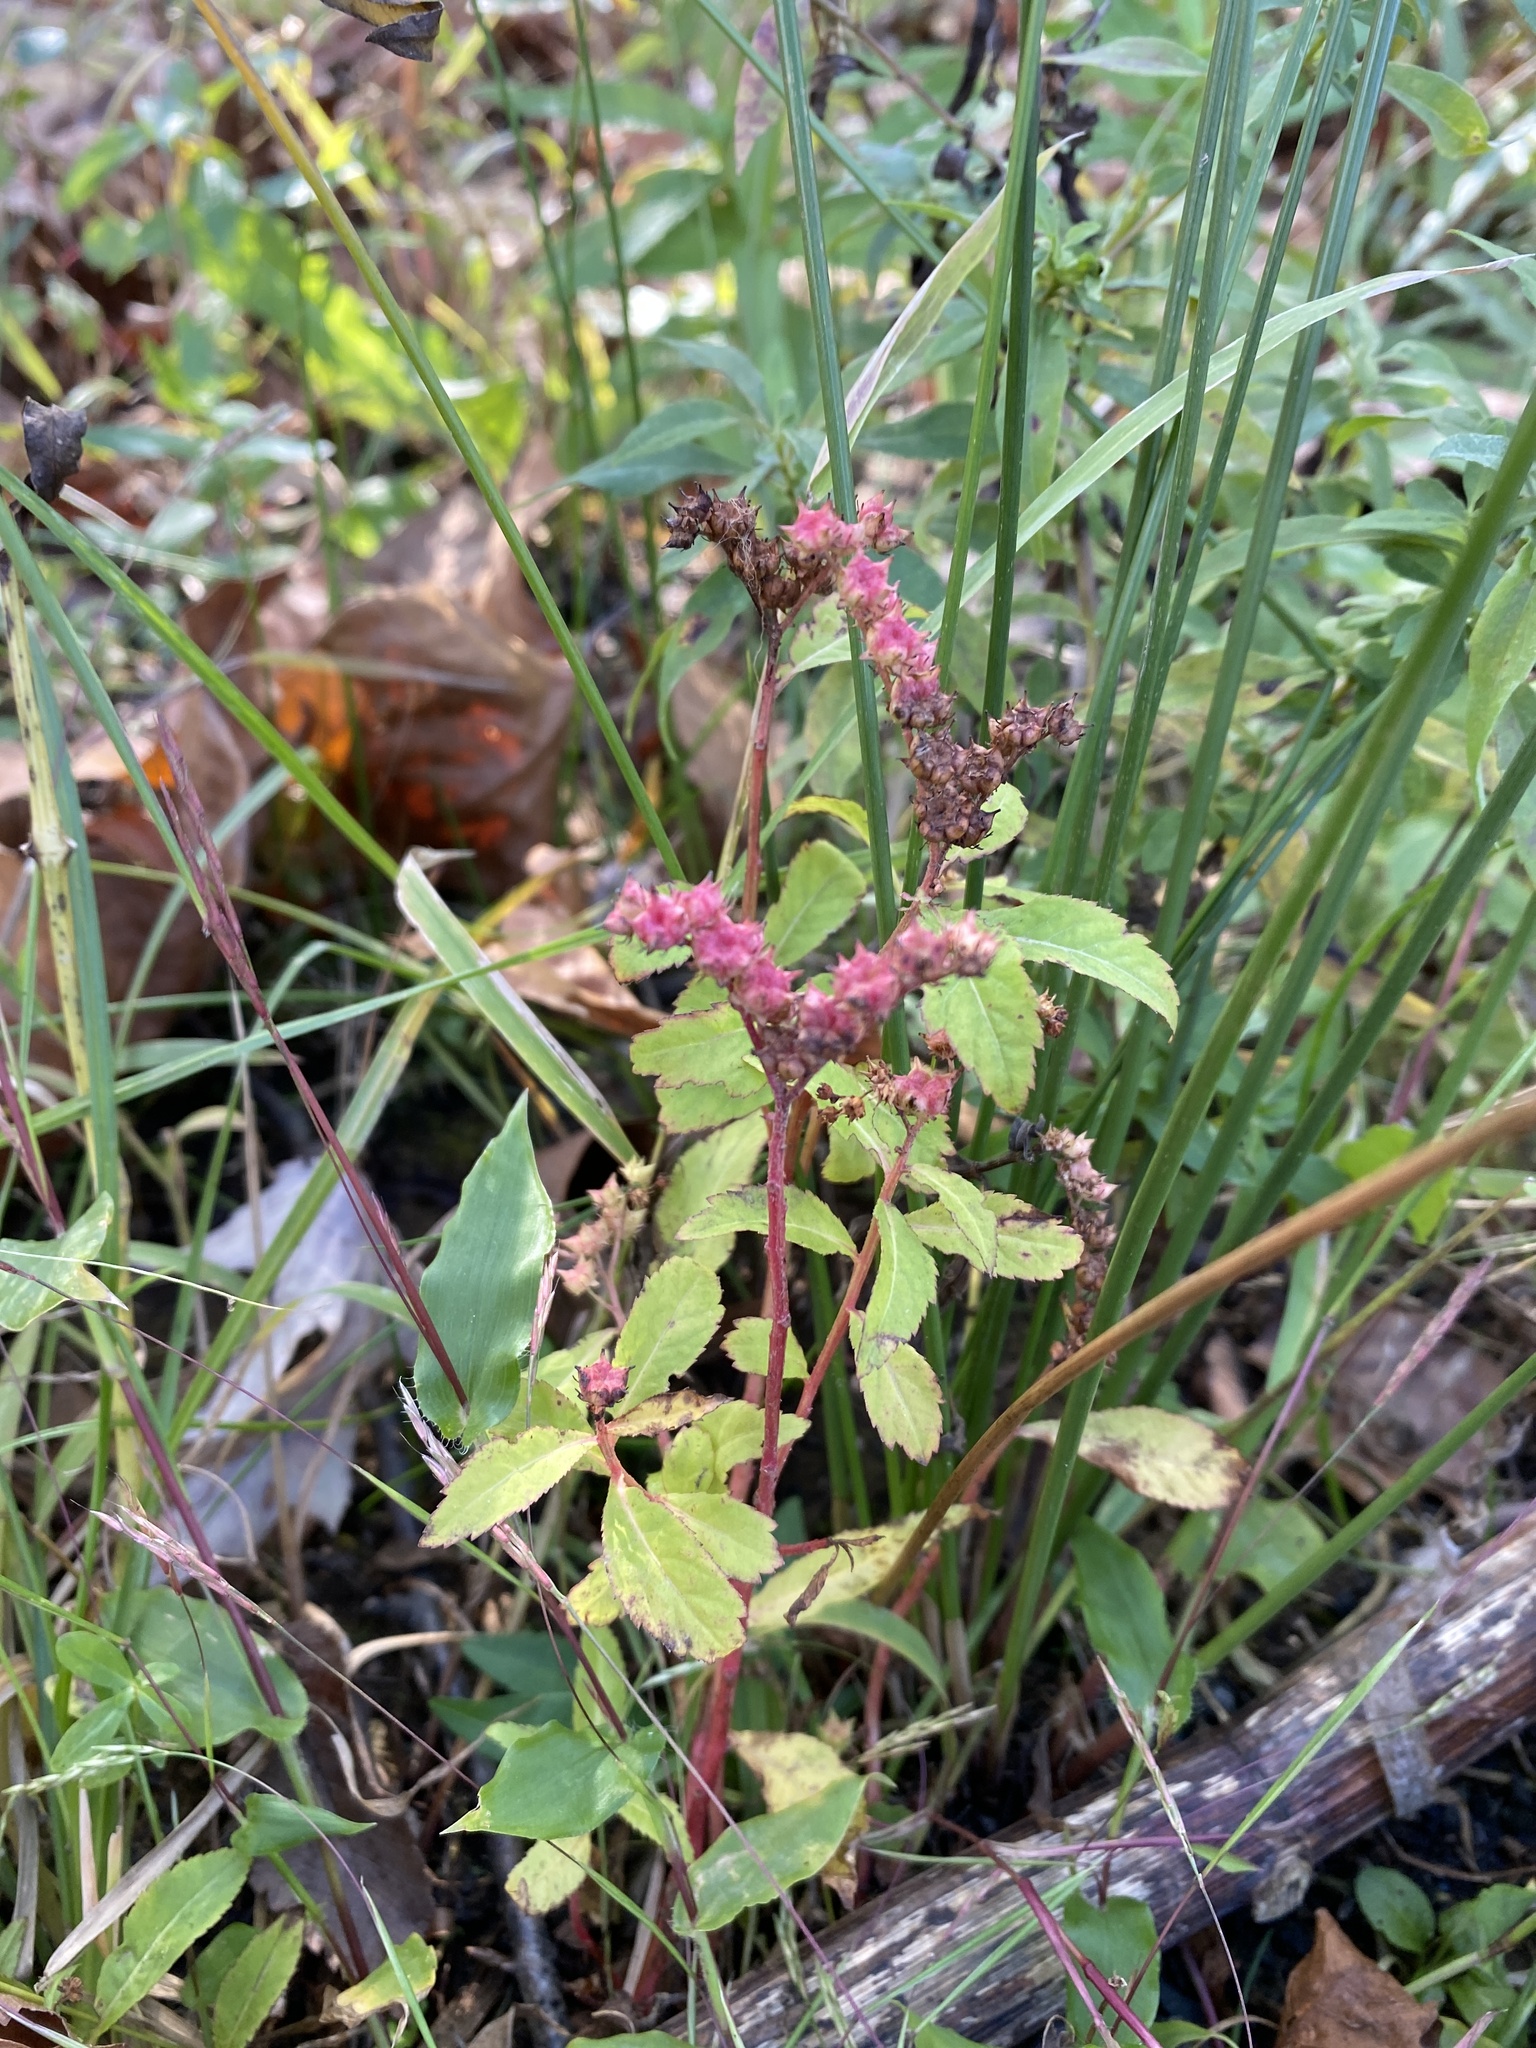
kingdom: Plantae
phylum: Tracheophyta
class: Magnoliopsida
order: Saxifragales
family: Penthoraceae
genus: Penthorum
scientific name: Penthorum sedoides
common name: Ditch stonecrop
